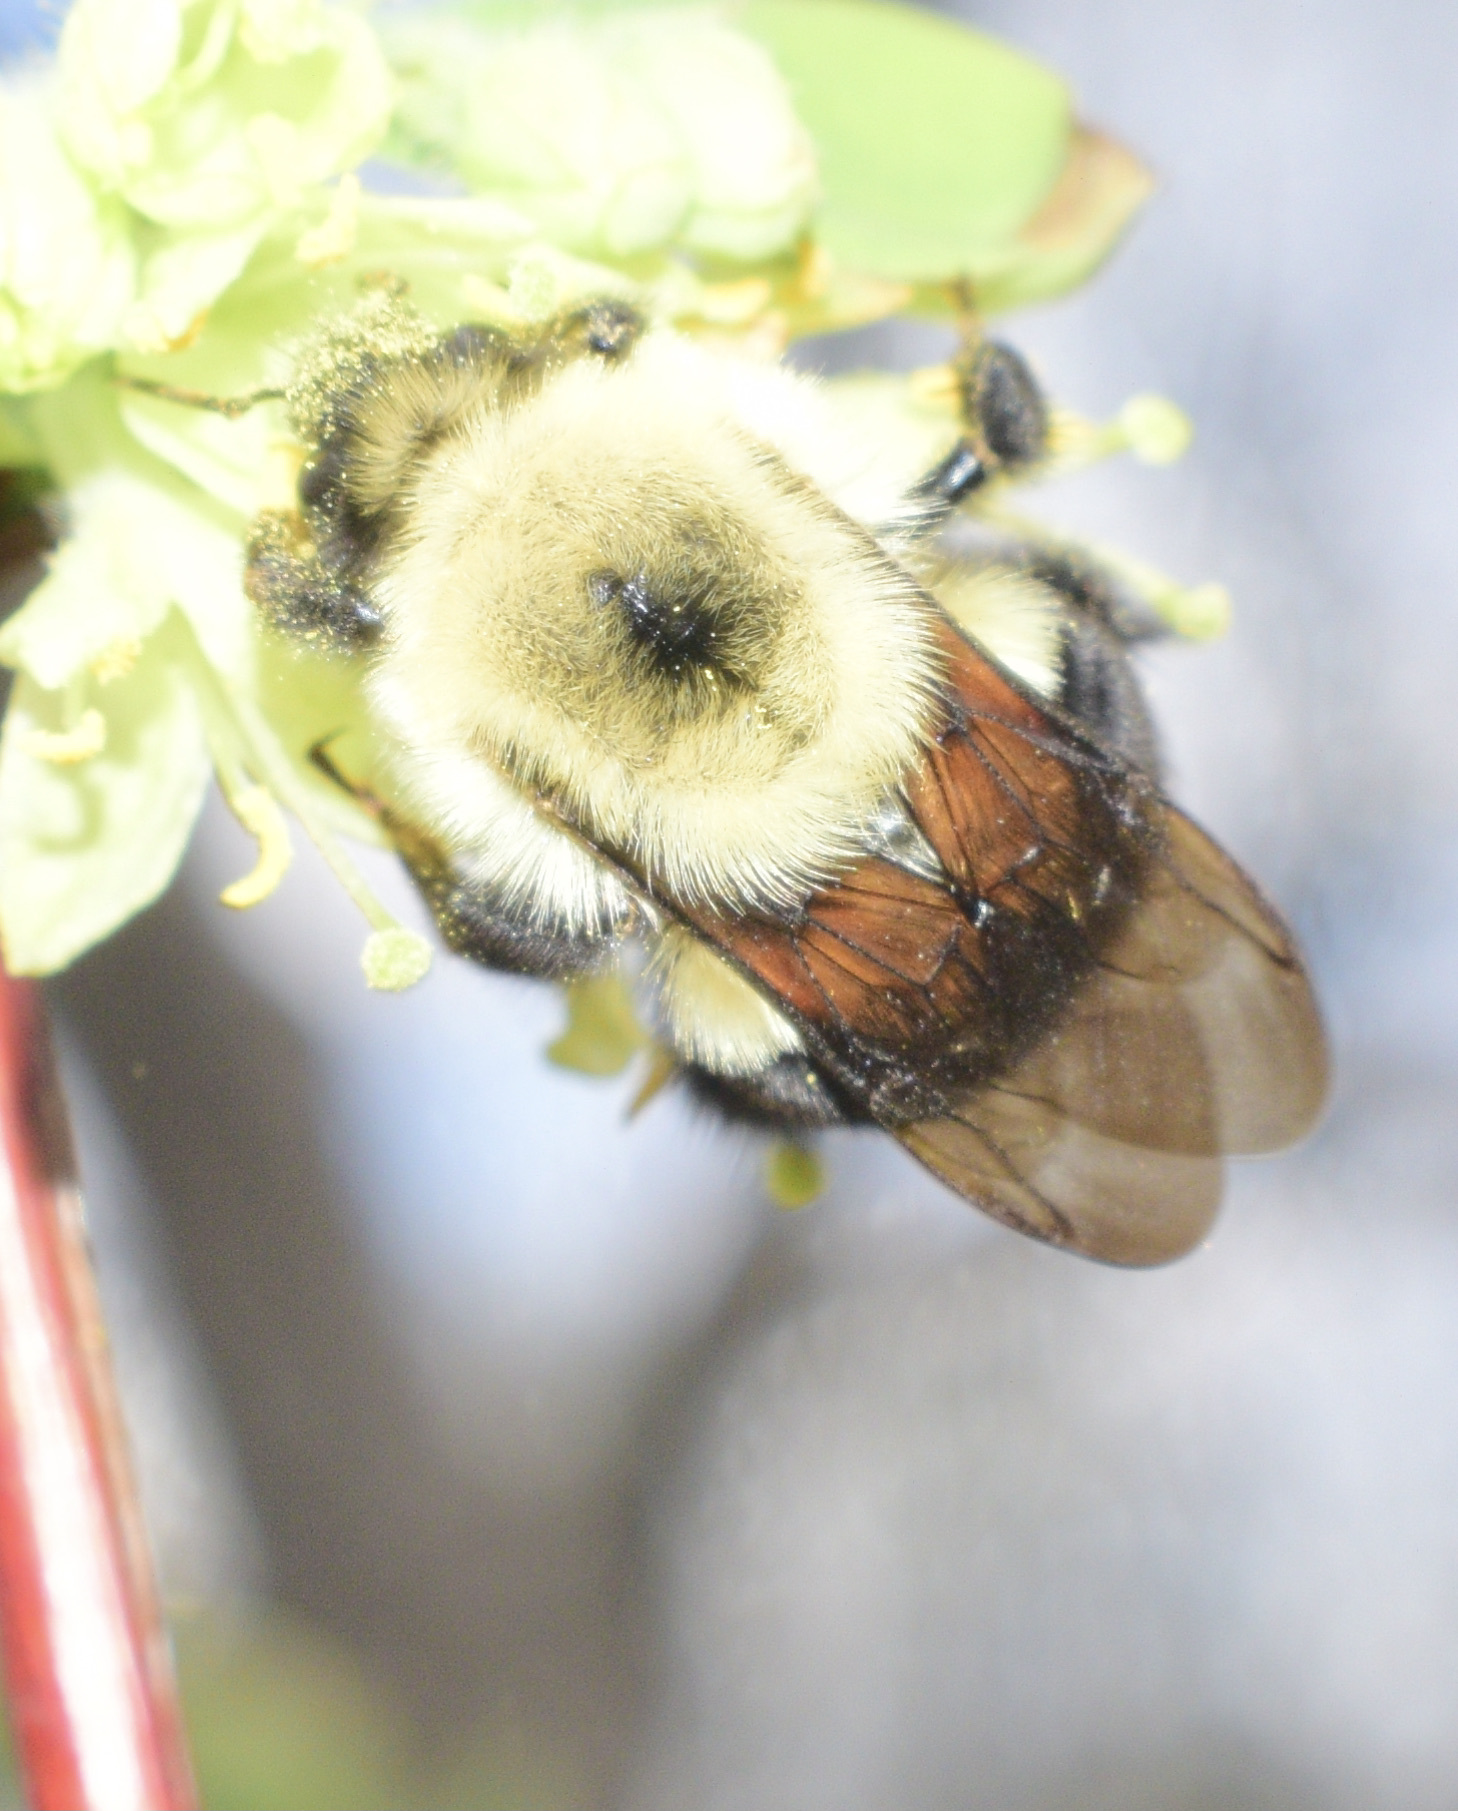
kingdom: Animalia
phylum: Arthropoda
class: Insecta
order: Hymenoptera
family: Apidae
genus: Bombus
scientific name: Bombus bimaculatus
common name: Two-spotted bumble bee
